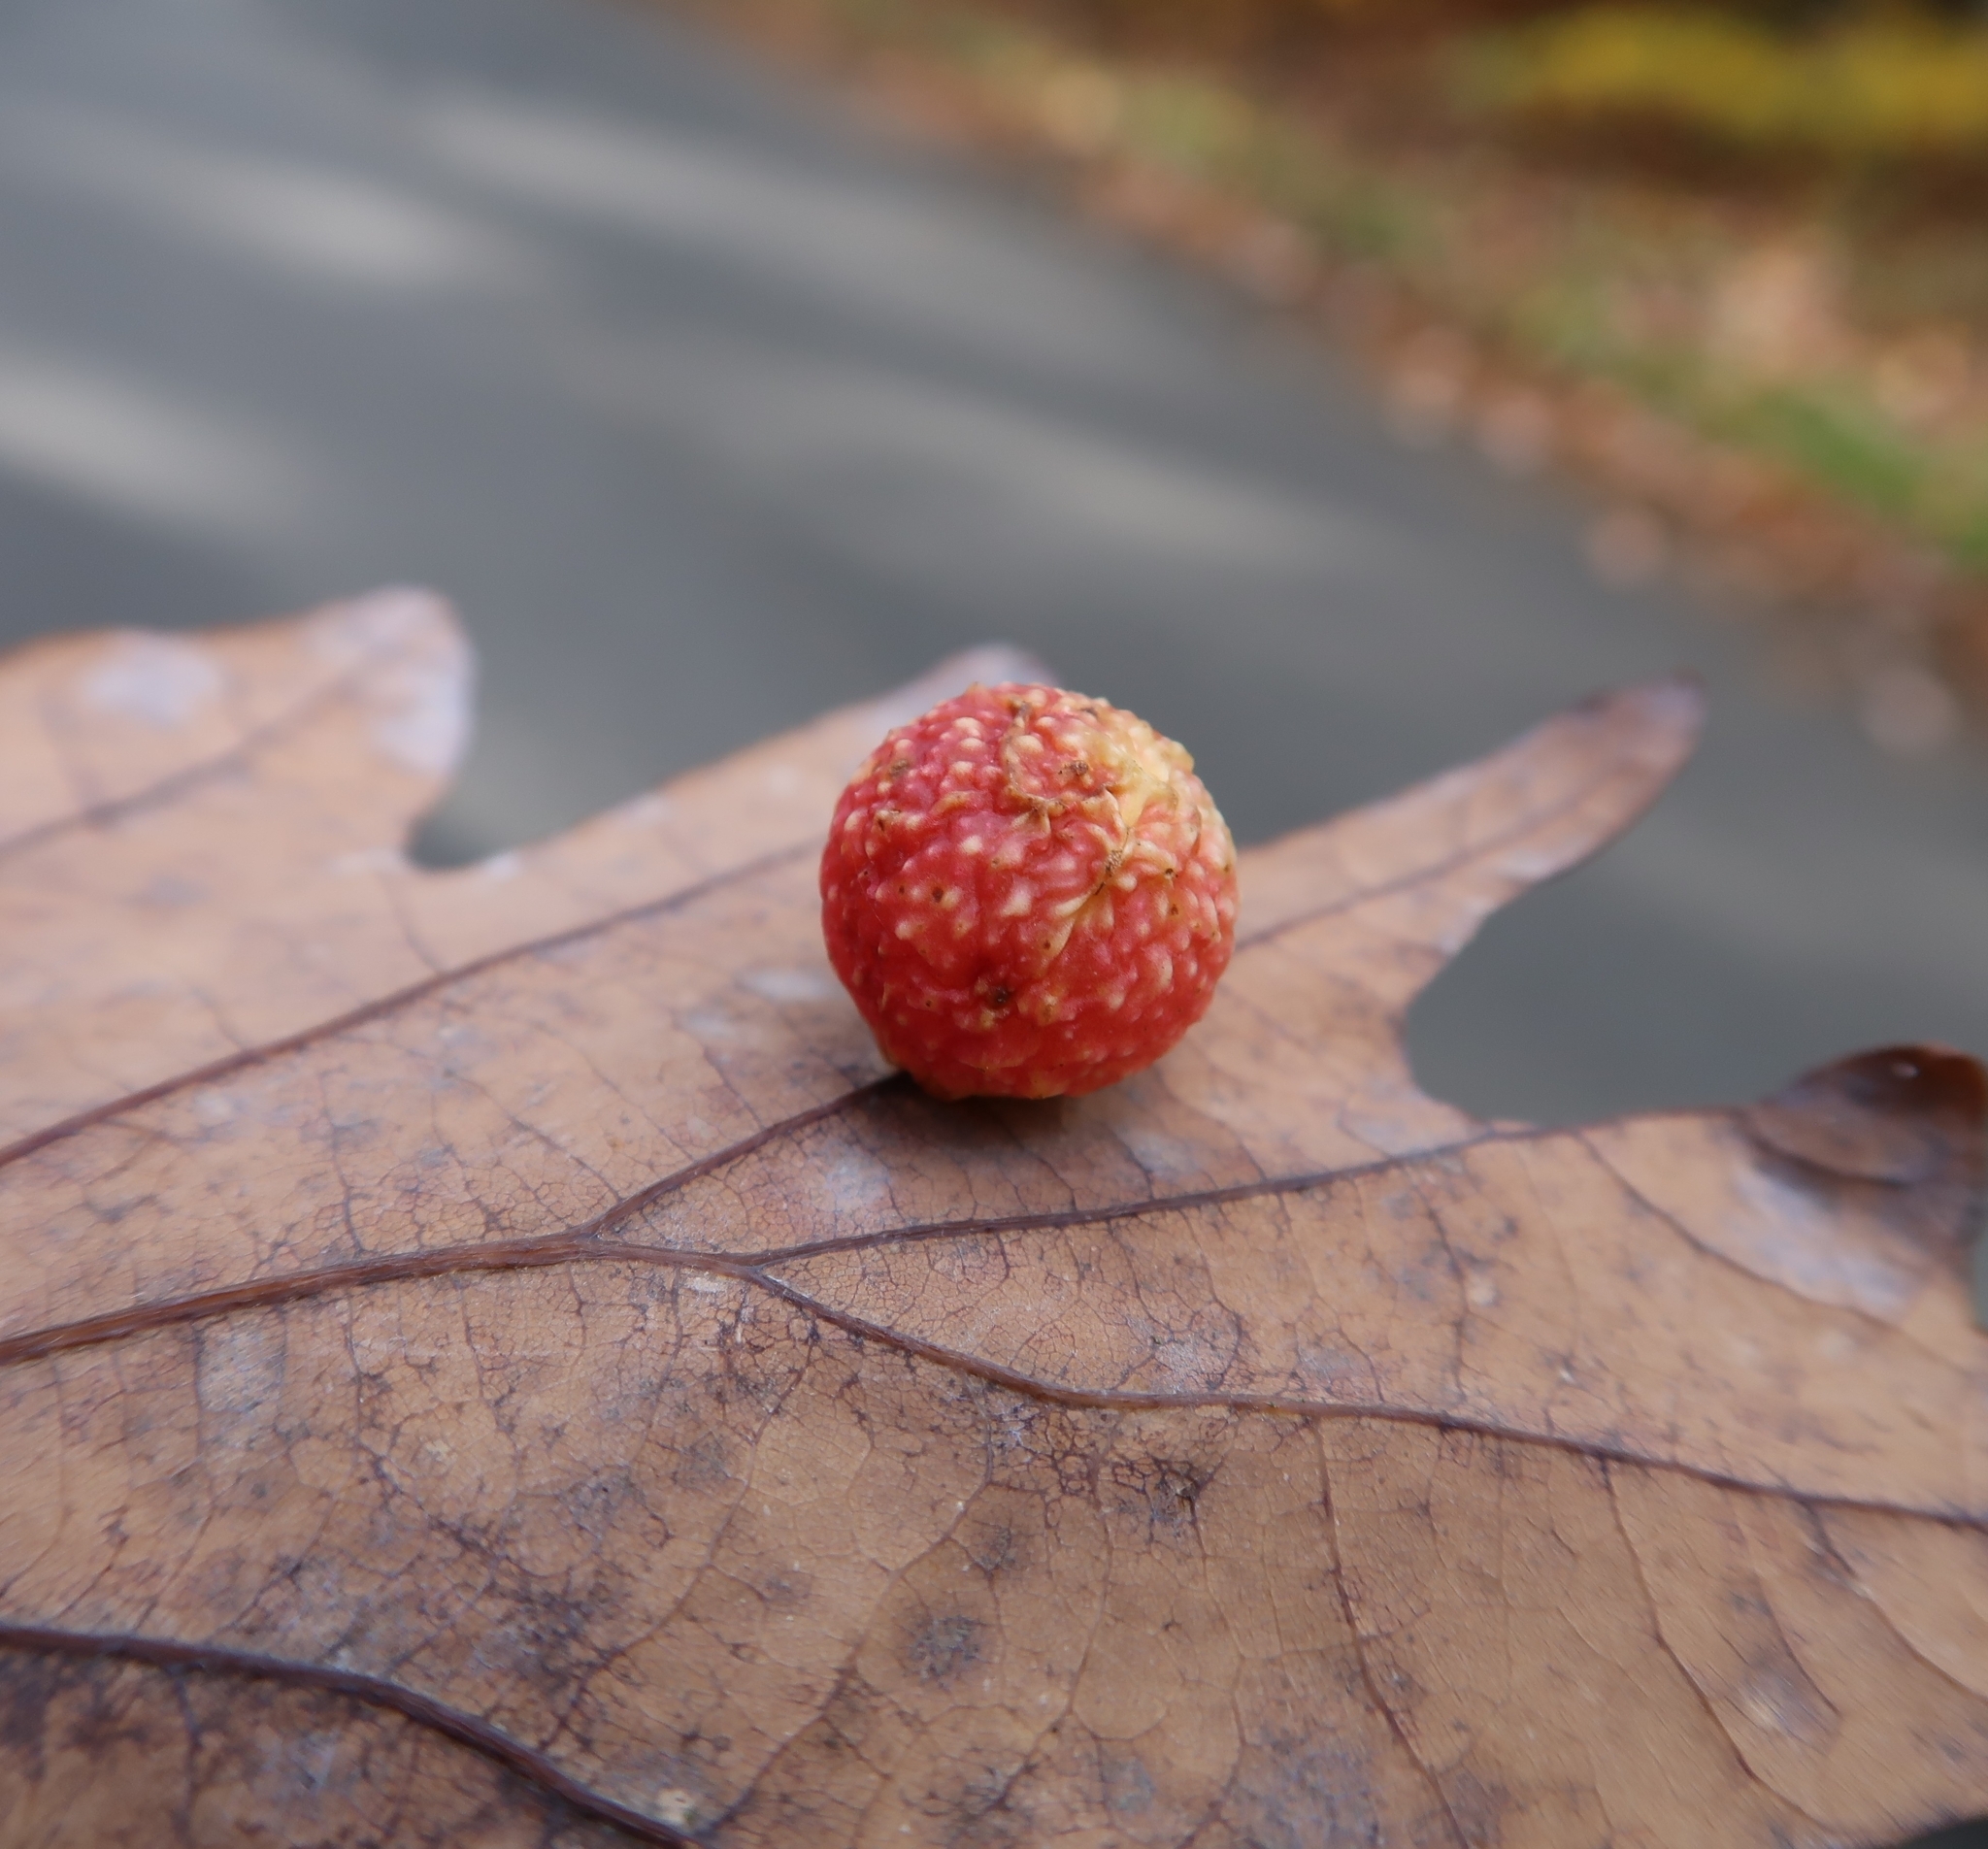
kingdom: Animalia
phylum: Arthropoda
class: Insecta
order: Hymenoptera
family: Cynipidae
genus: Cynips
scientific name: Cynips quercusfolii
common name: Cherry gall
